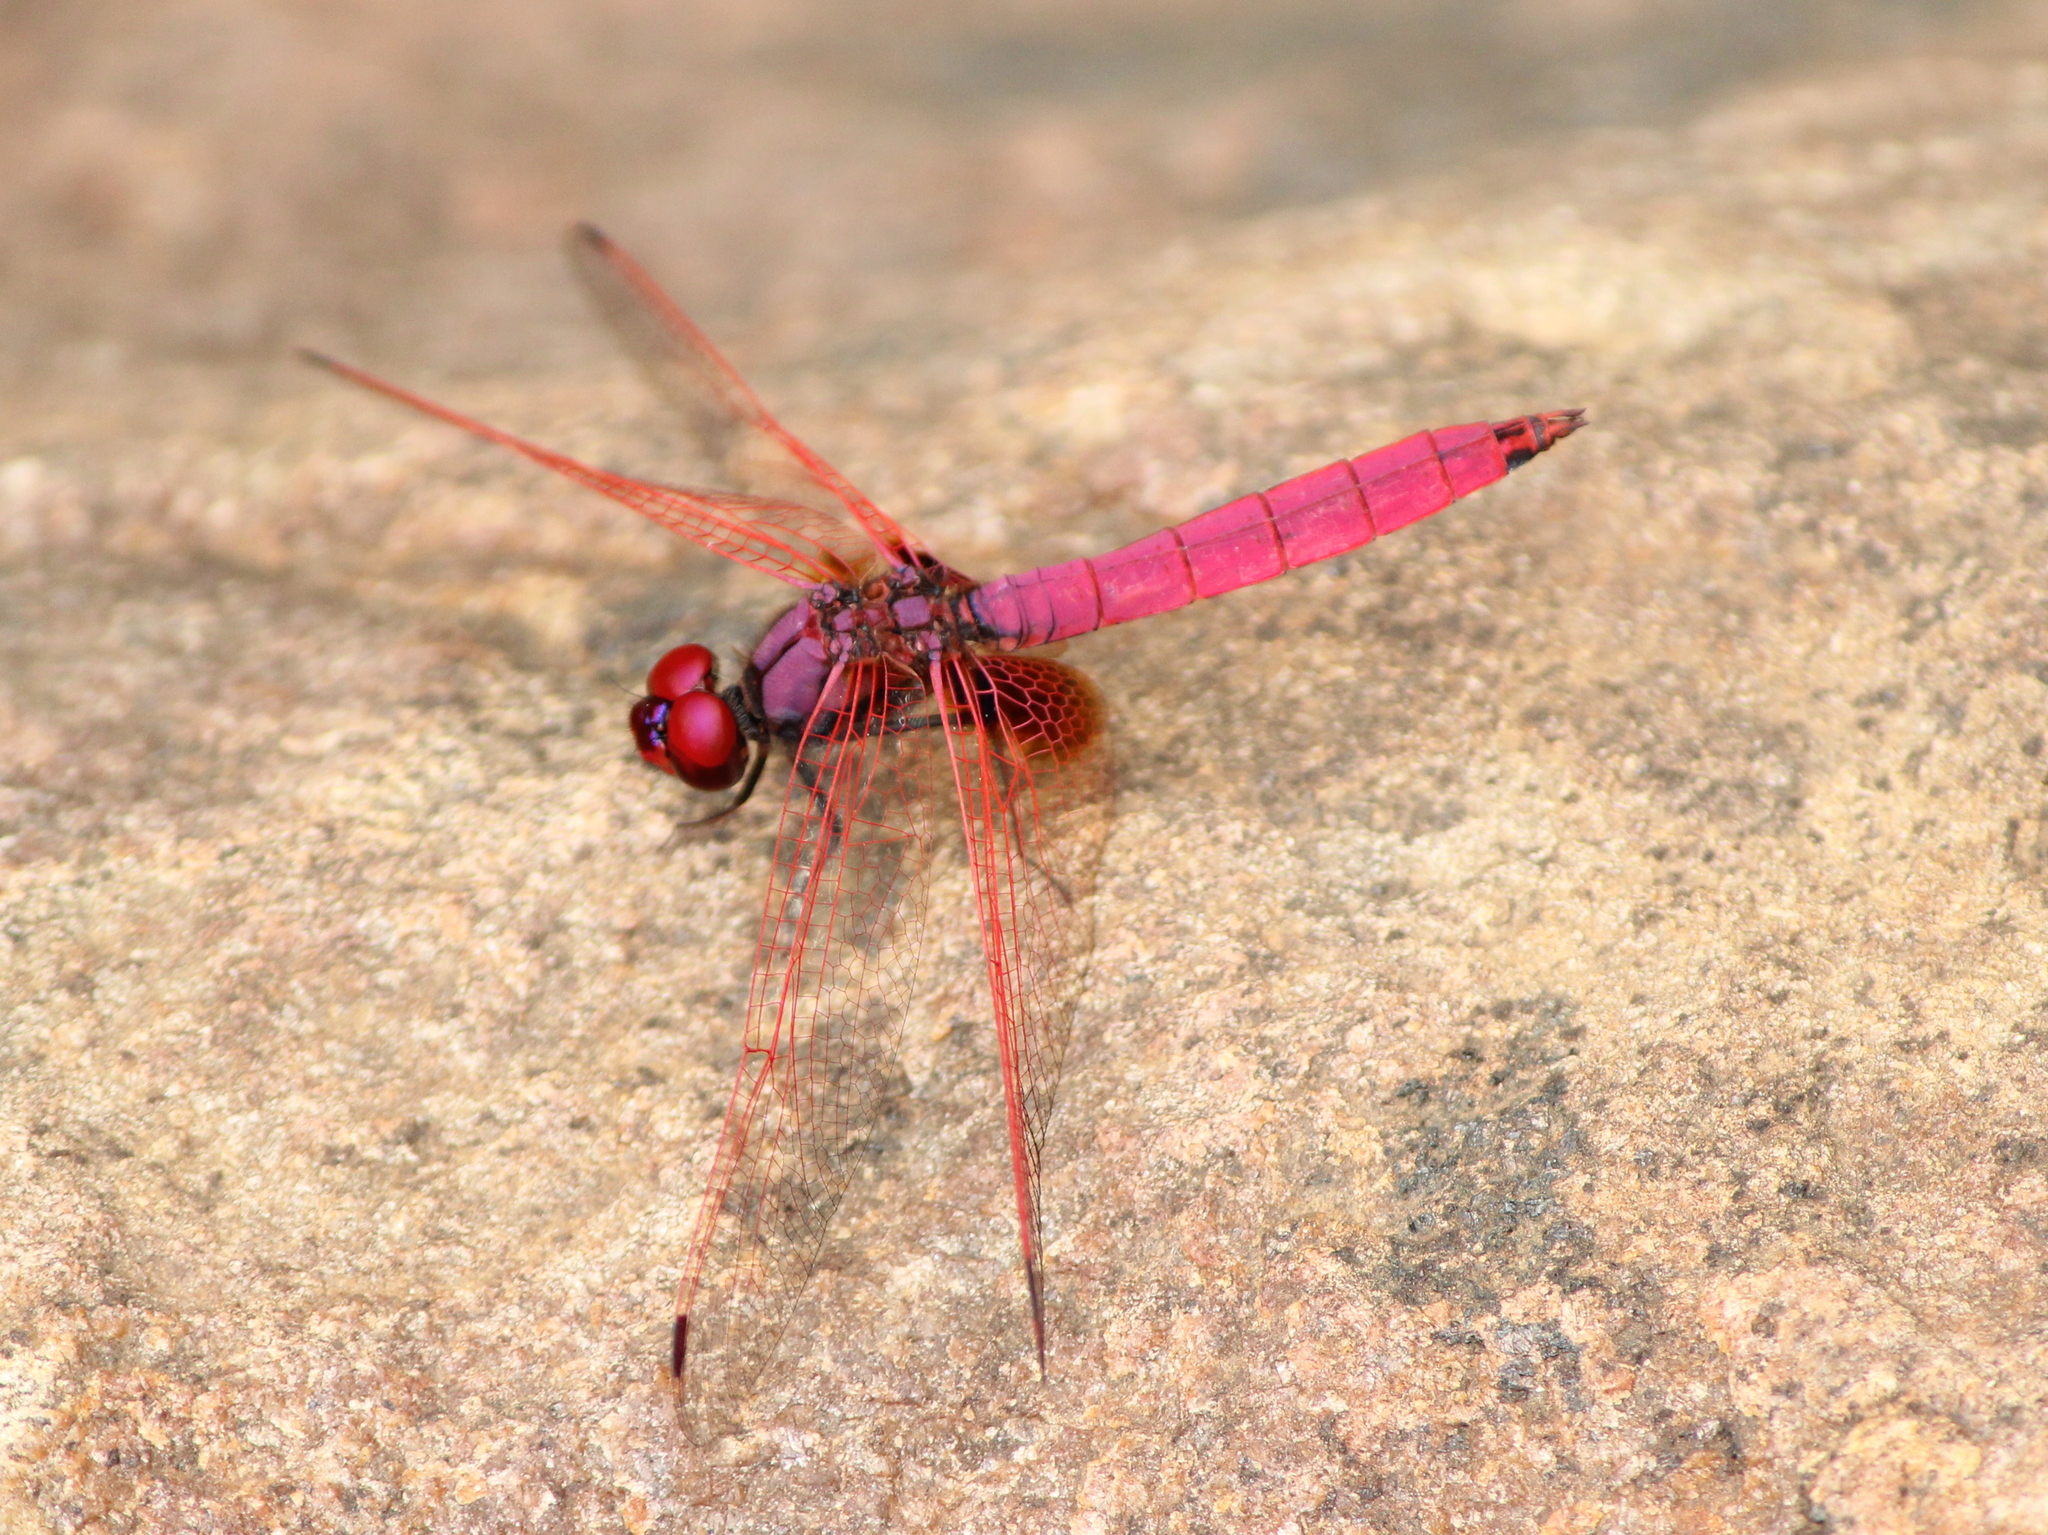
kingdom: Animalia
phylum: Arthropoda
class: Insecta
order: Odonata
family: Libellulidae
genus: Trithemis
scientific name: Trithemis aurora
